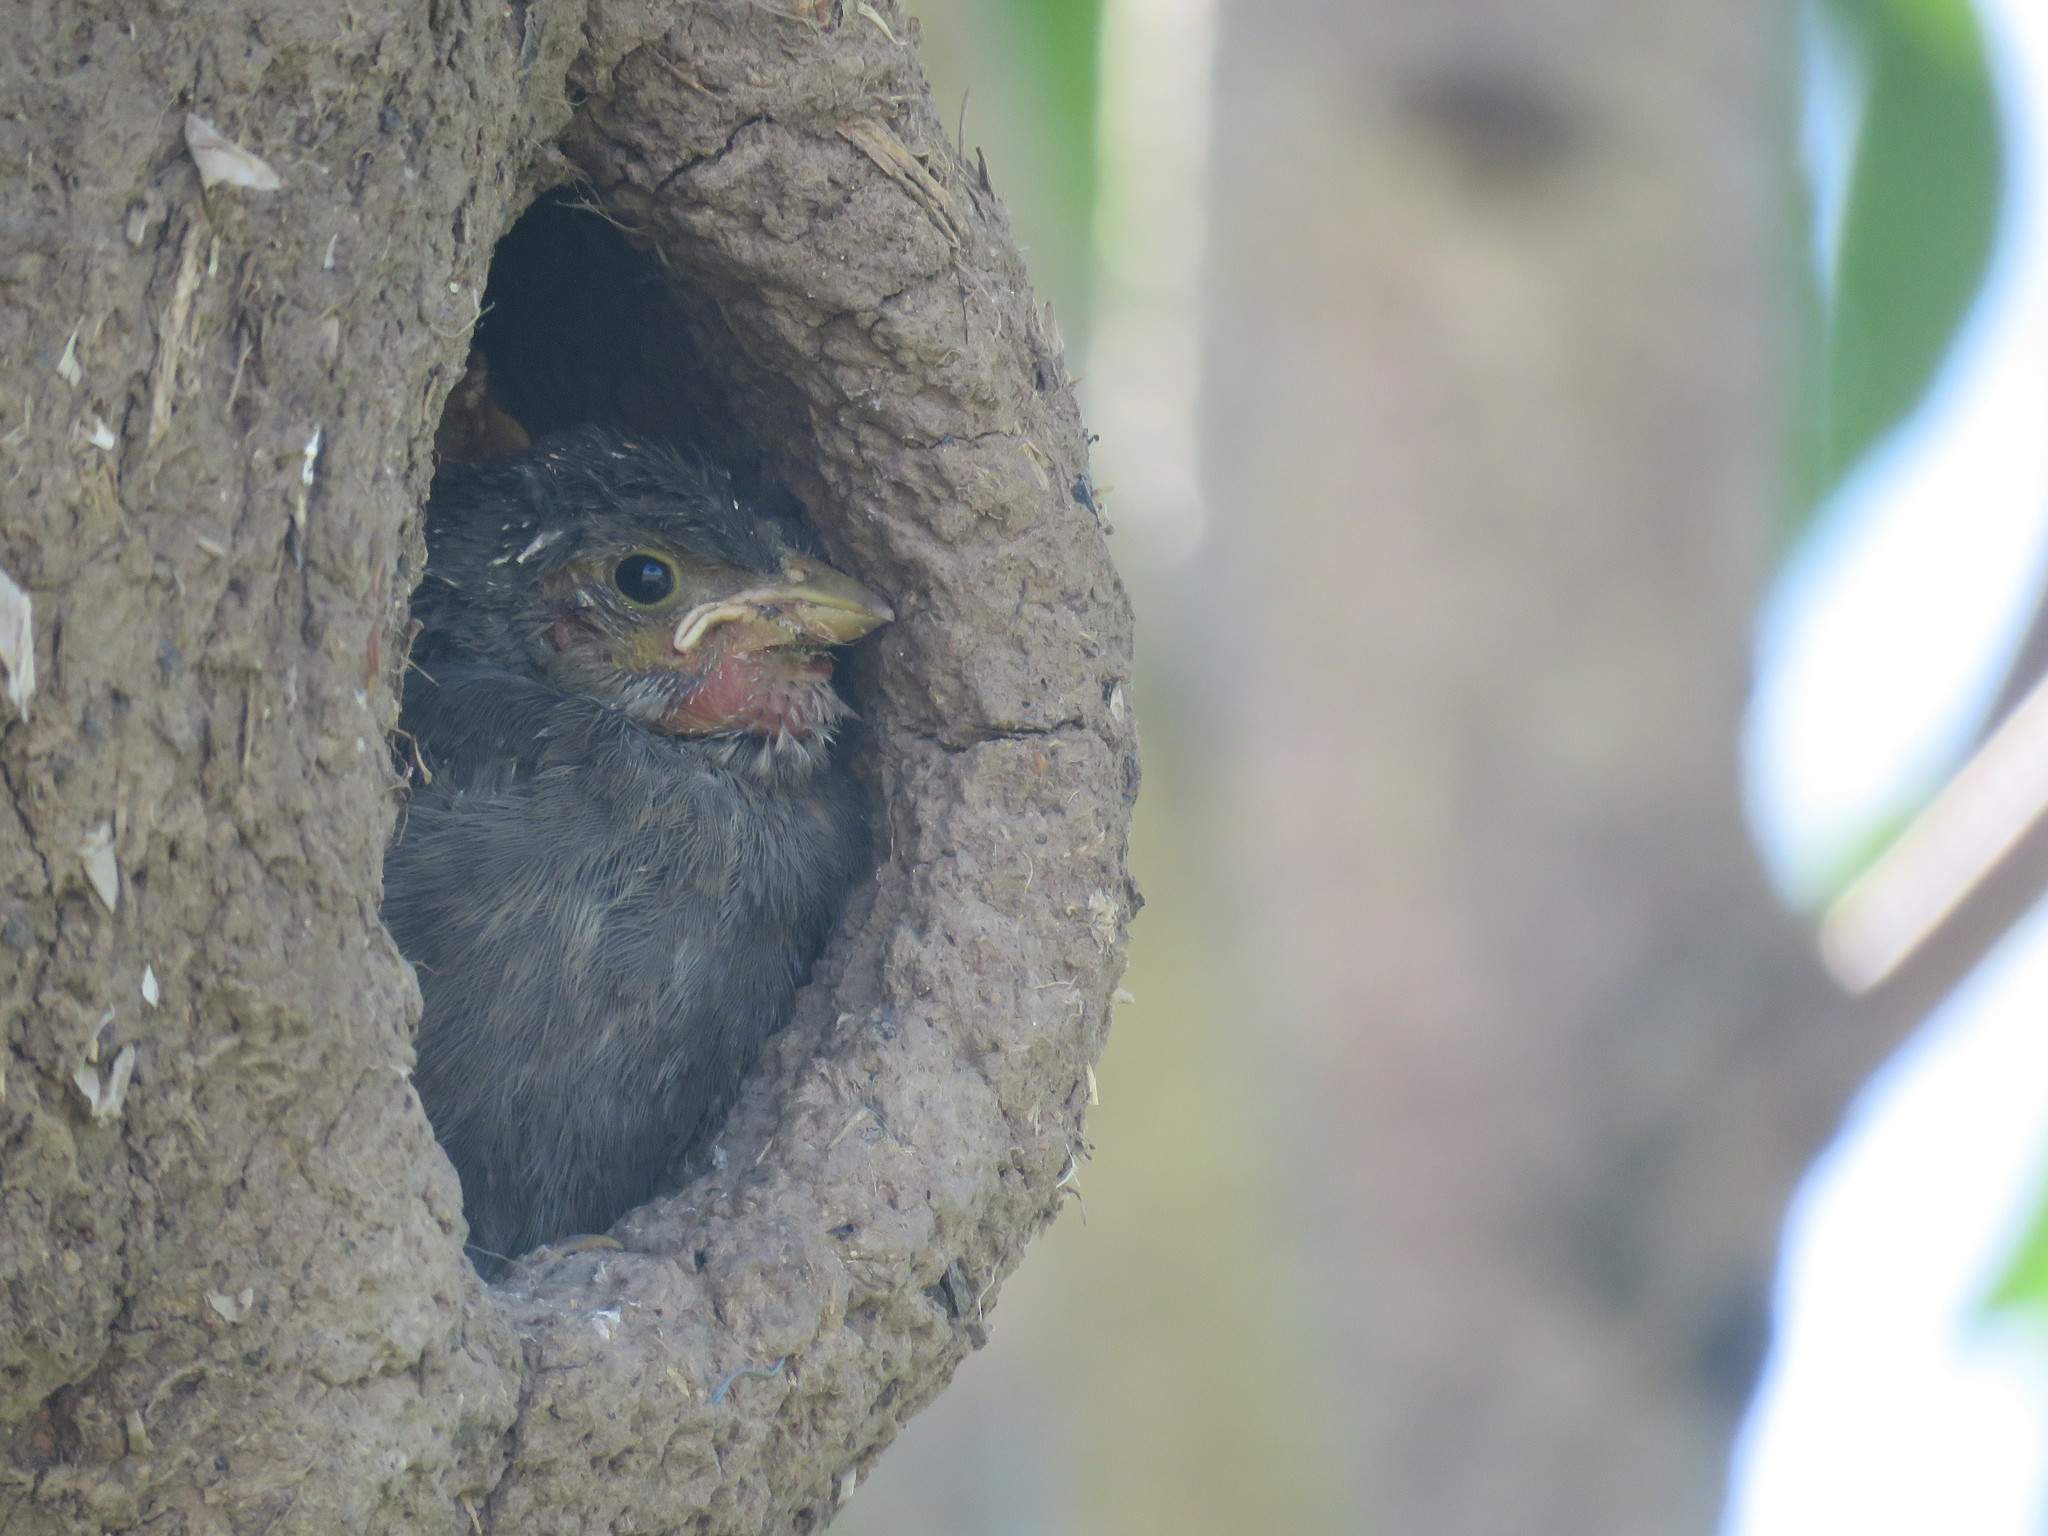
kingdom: Animalia
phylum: Chordata
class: Aves
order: Passeriformes
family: Sturnidae
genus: Sturnus
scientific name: Sturnus vulgaris
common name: Common starling
